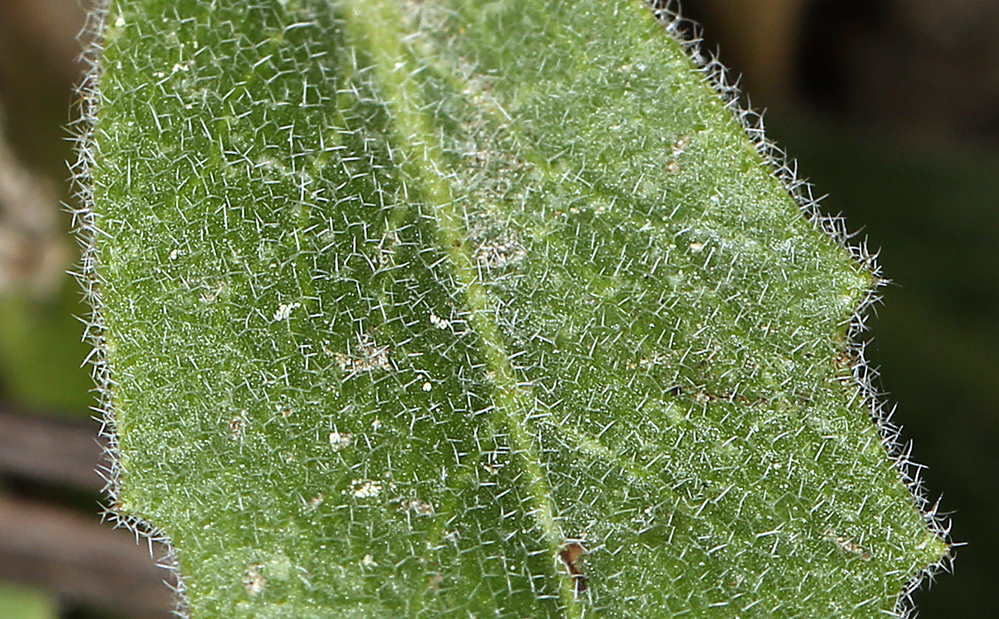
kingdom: Plantae
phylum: Tracheophyta
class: Magnoliopsida
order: Brassicales
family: Brassicaceae
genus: Yosemitea
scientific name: Yosemitea repanda
